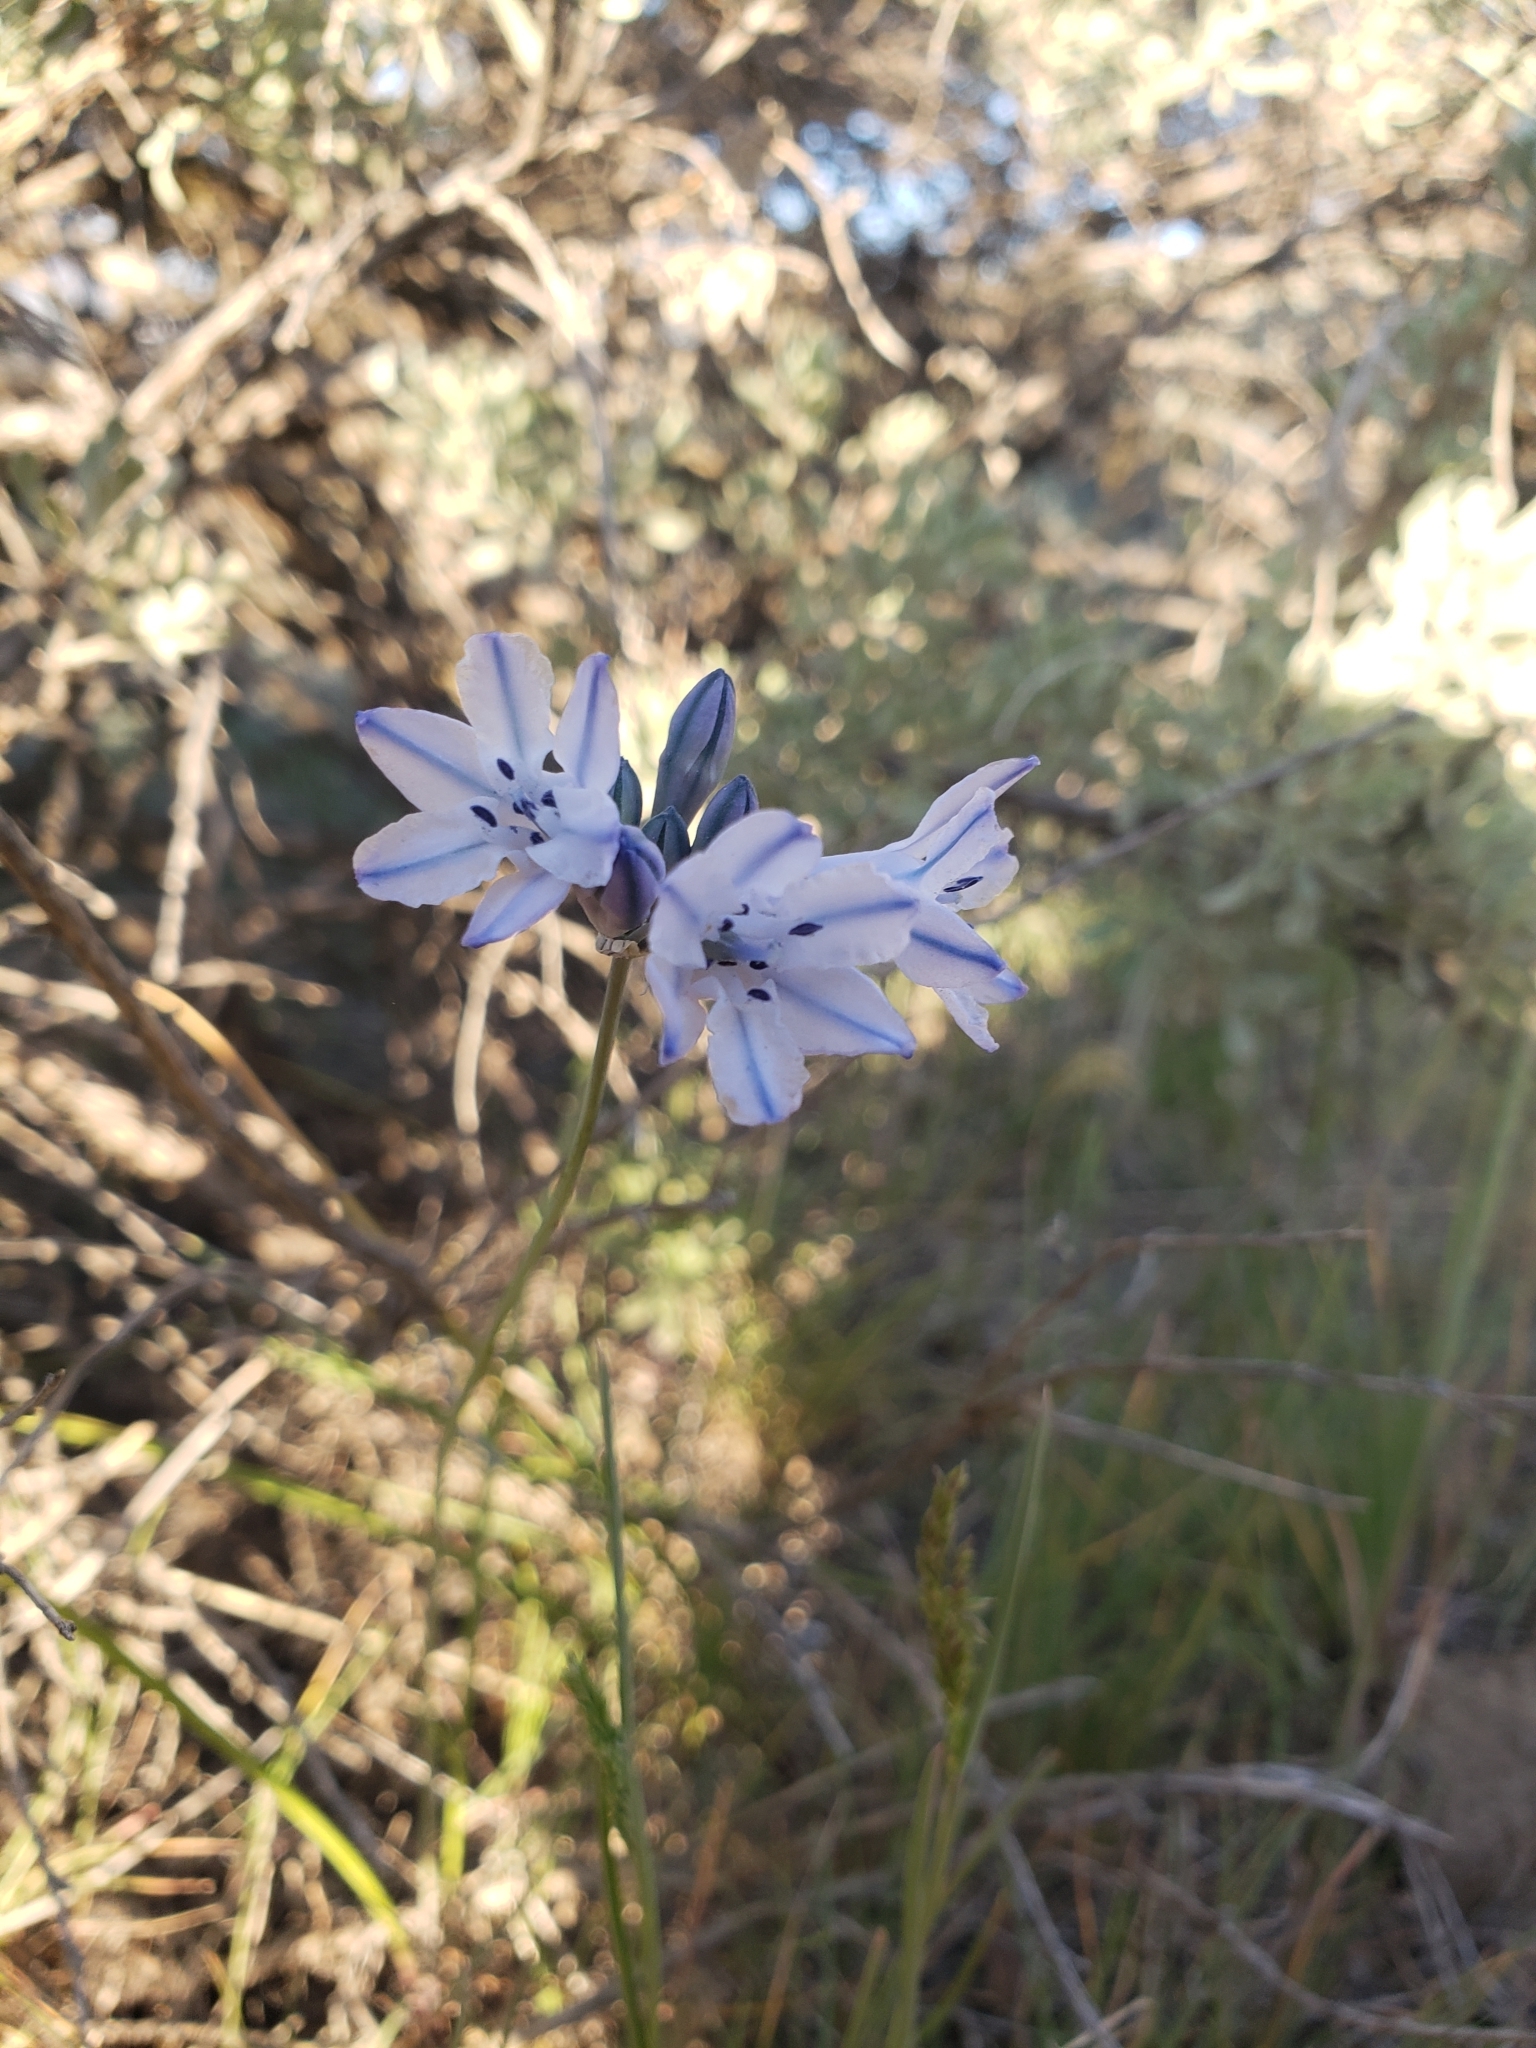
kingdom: Plantae
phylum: Tracheophyta
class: Liliopsida
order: Asparagales
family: Asparagaceae
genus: Triteleia
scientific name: Triteleia grandiflora
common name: Wild hyacinth
